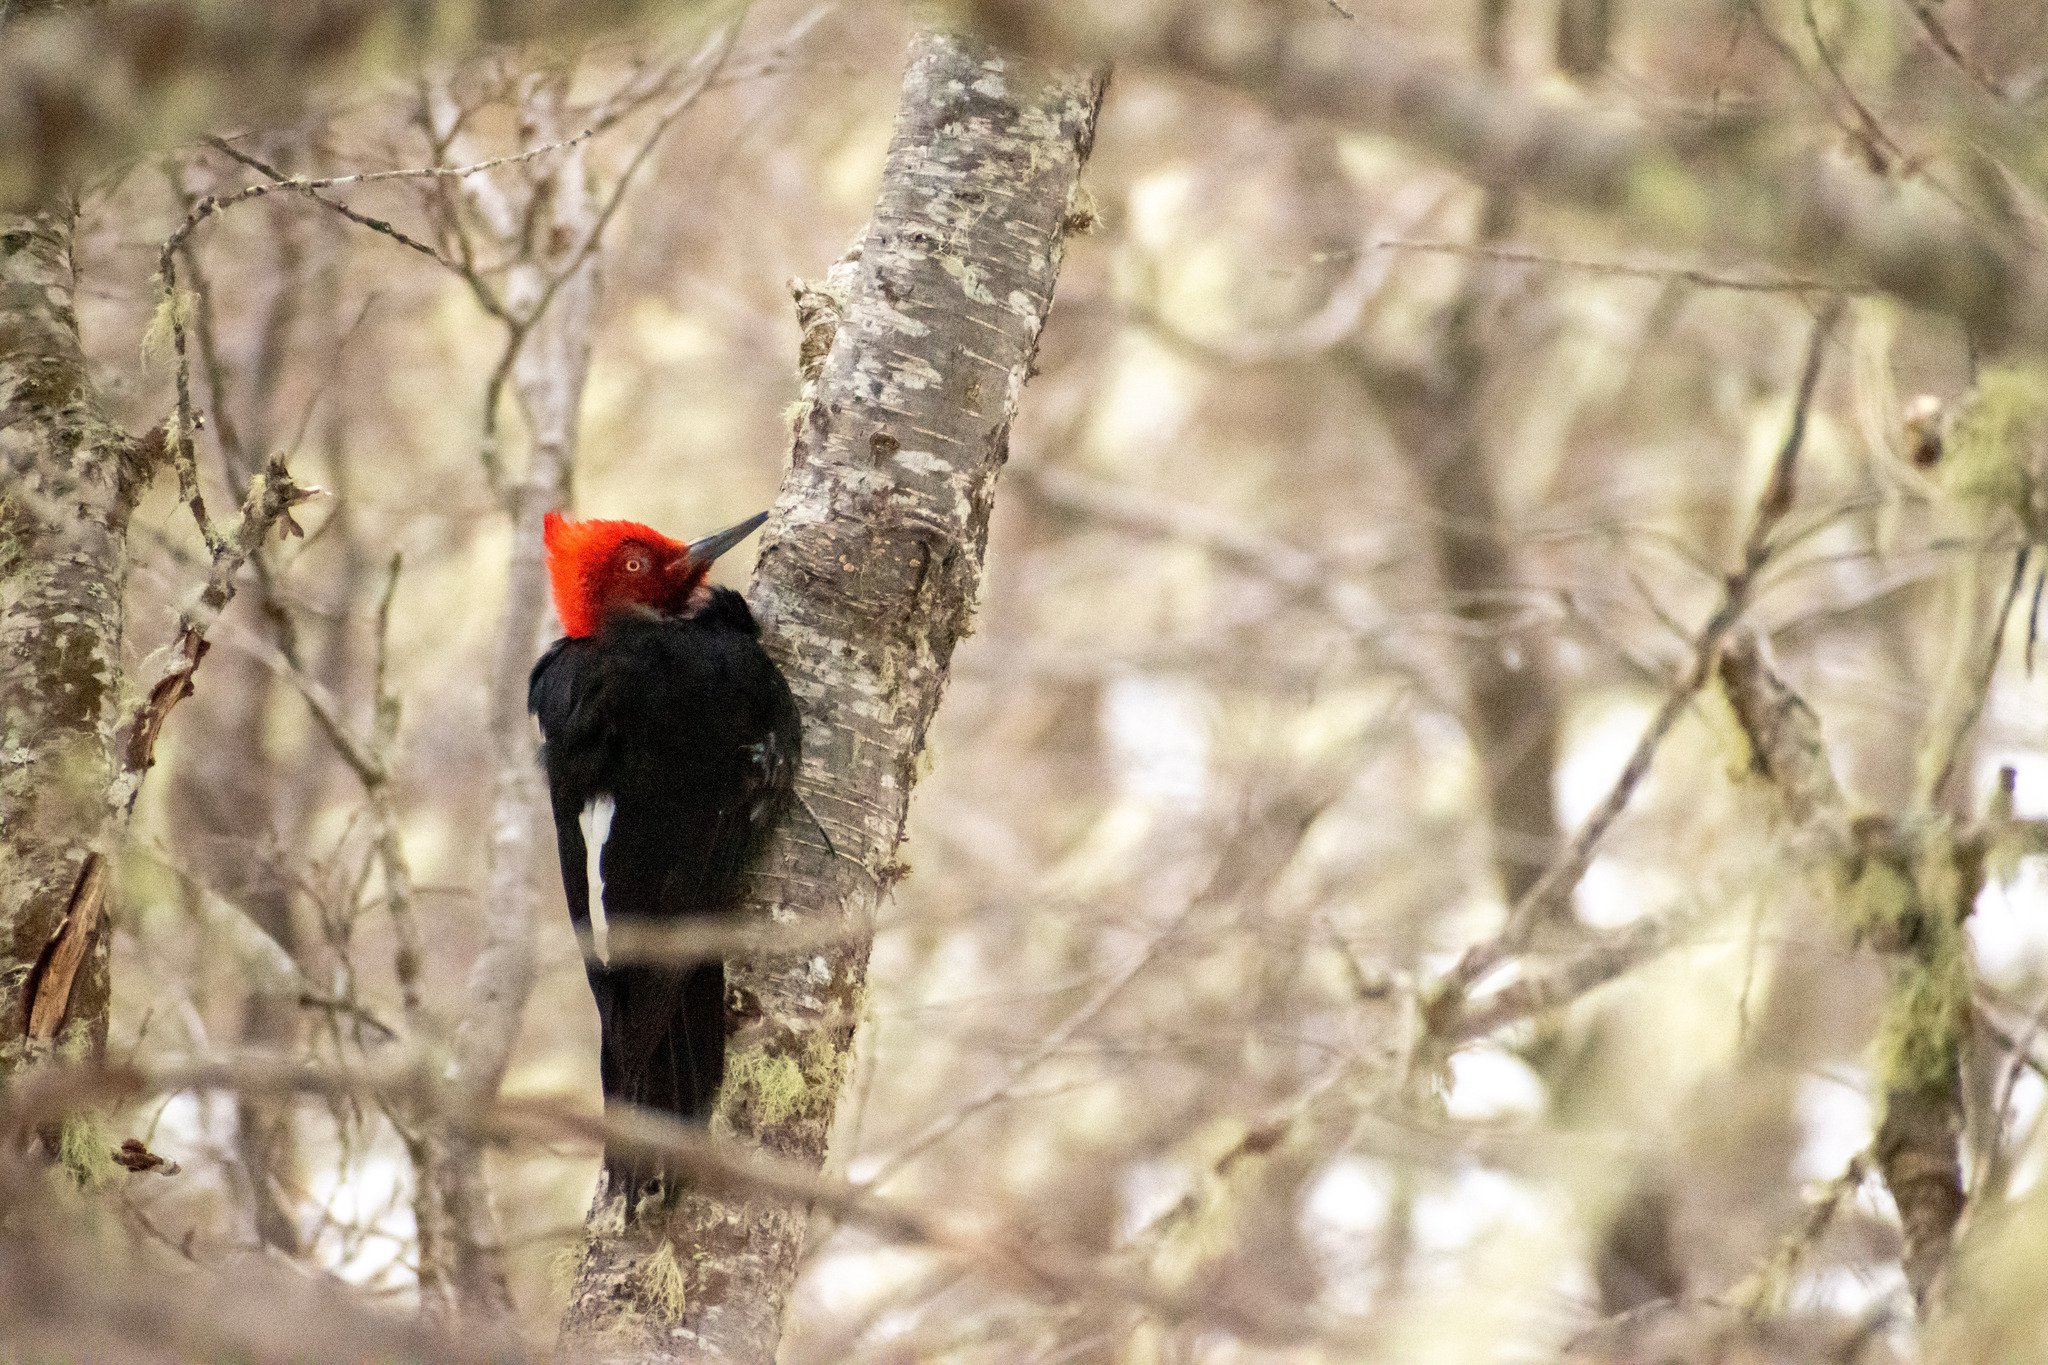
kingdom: Animalia
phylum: Chordata
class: Aves
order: Piciformes
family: Picidae
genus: Campephilus
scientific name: Campephilus magellanicus
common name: Magellanic woodpecker
